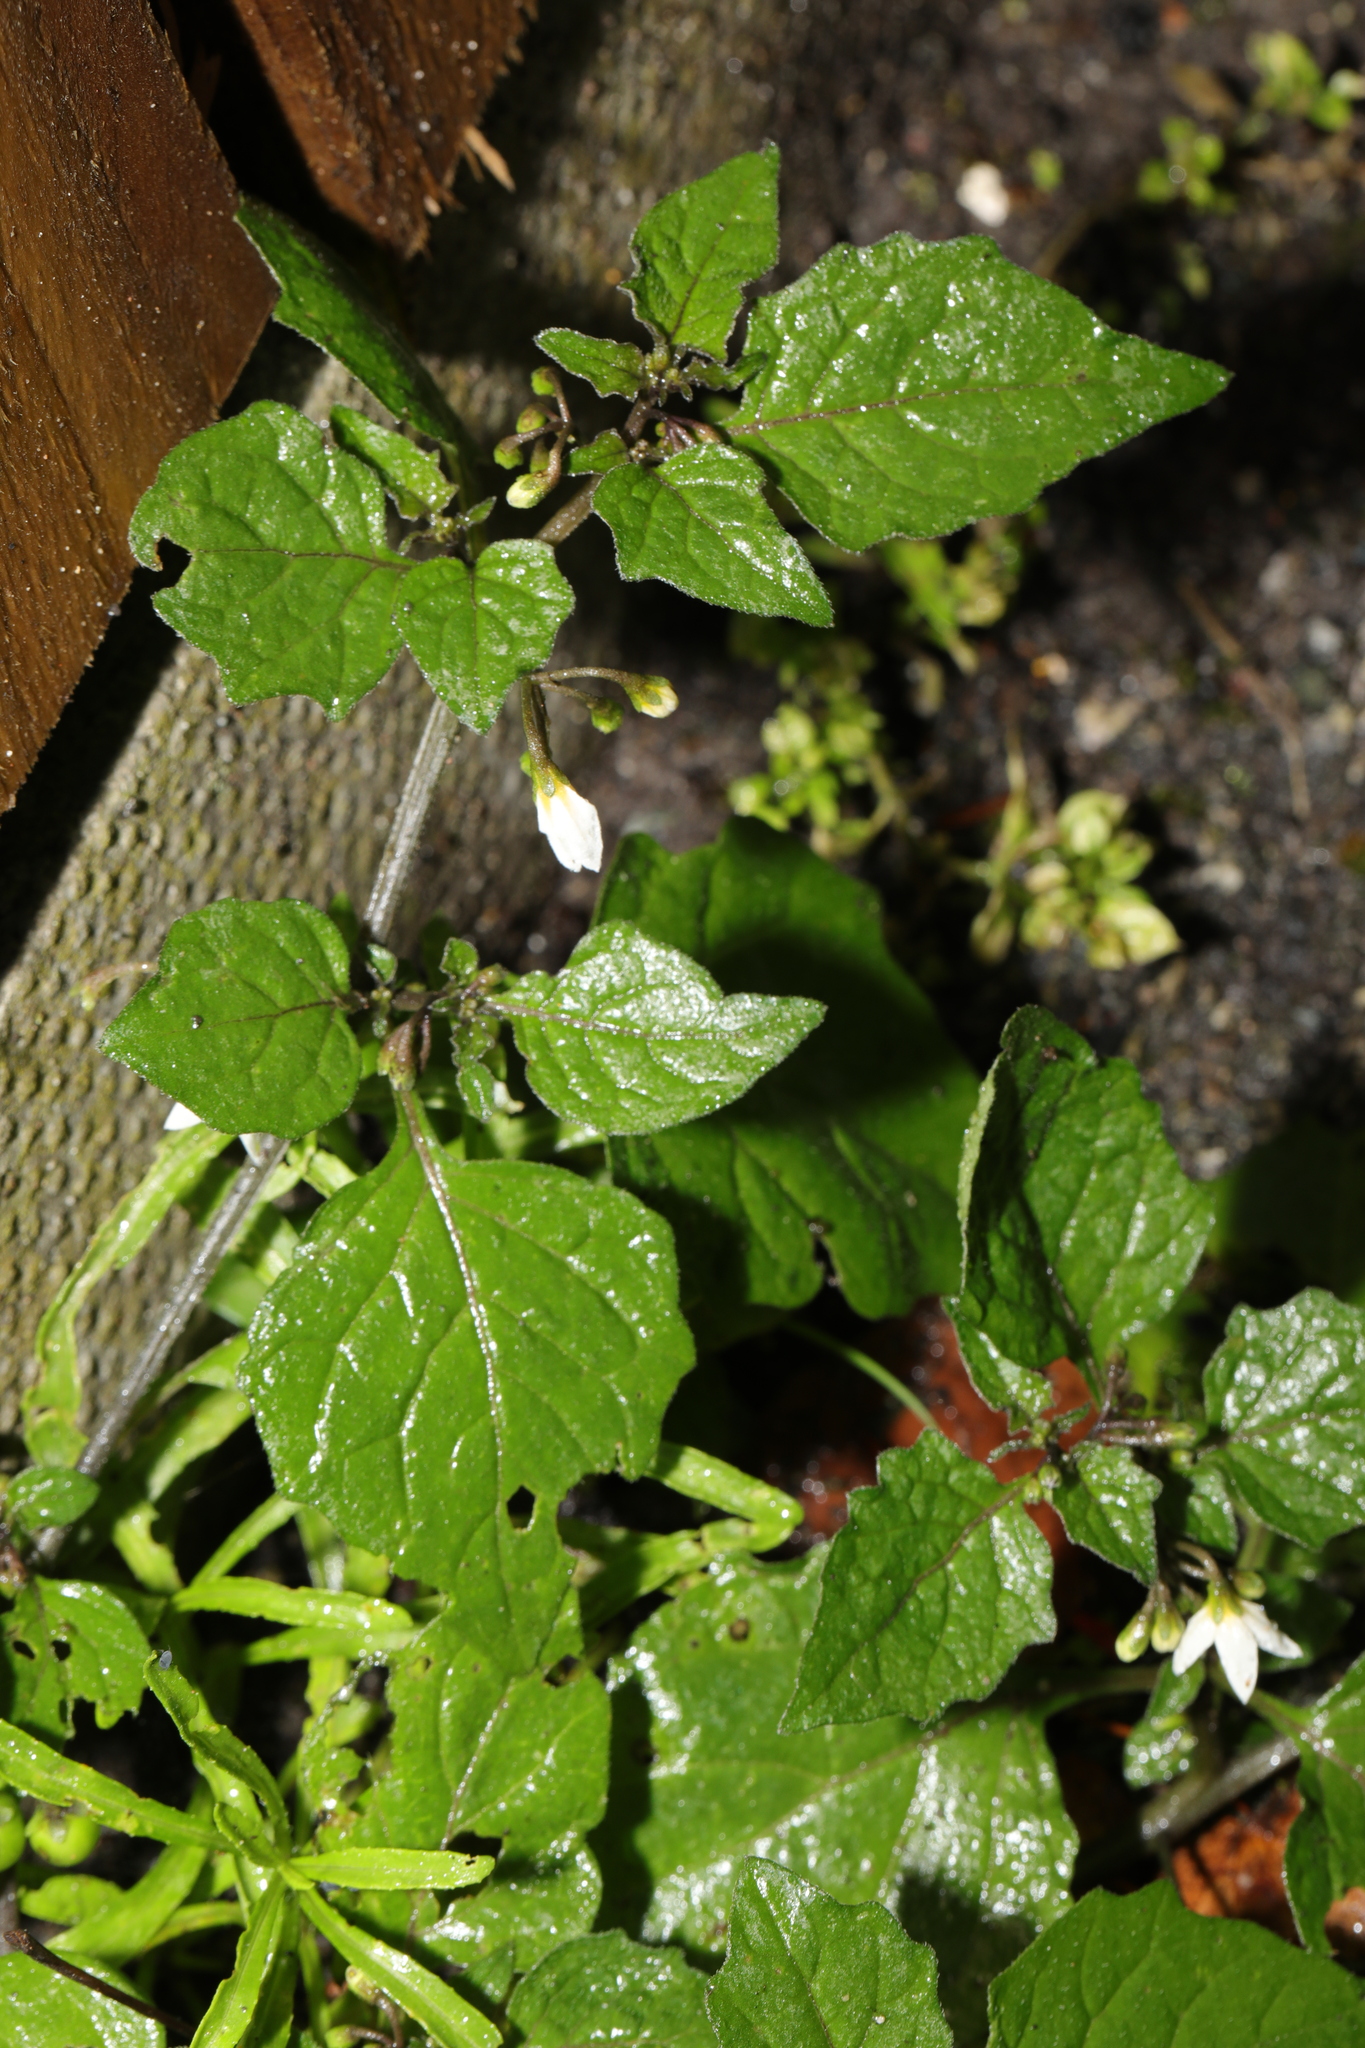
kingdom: Plantae
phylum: Tracheophyta
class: Magnoliopsida
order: Solanales
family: Solanaceae
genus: Solanum
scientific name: Solanum nigrum
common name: Black nightshade
